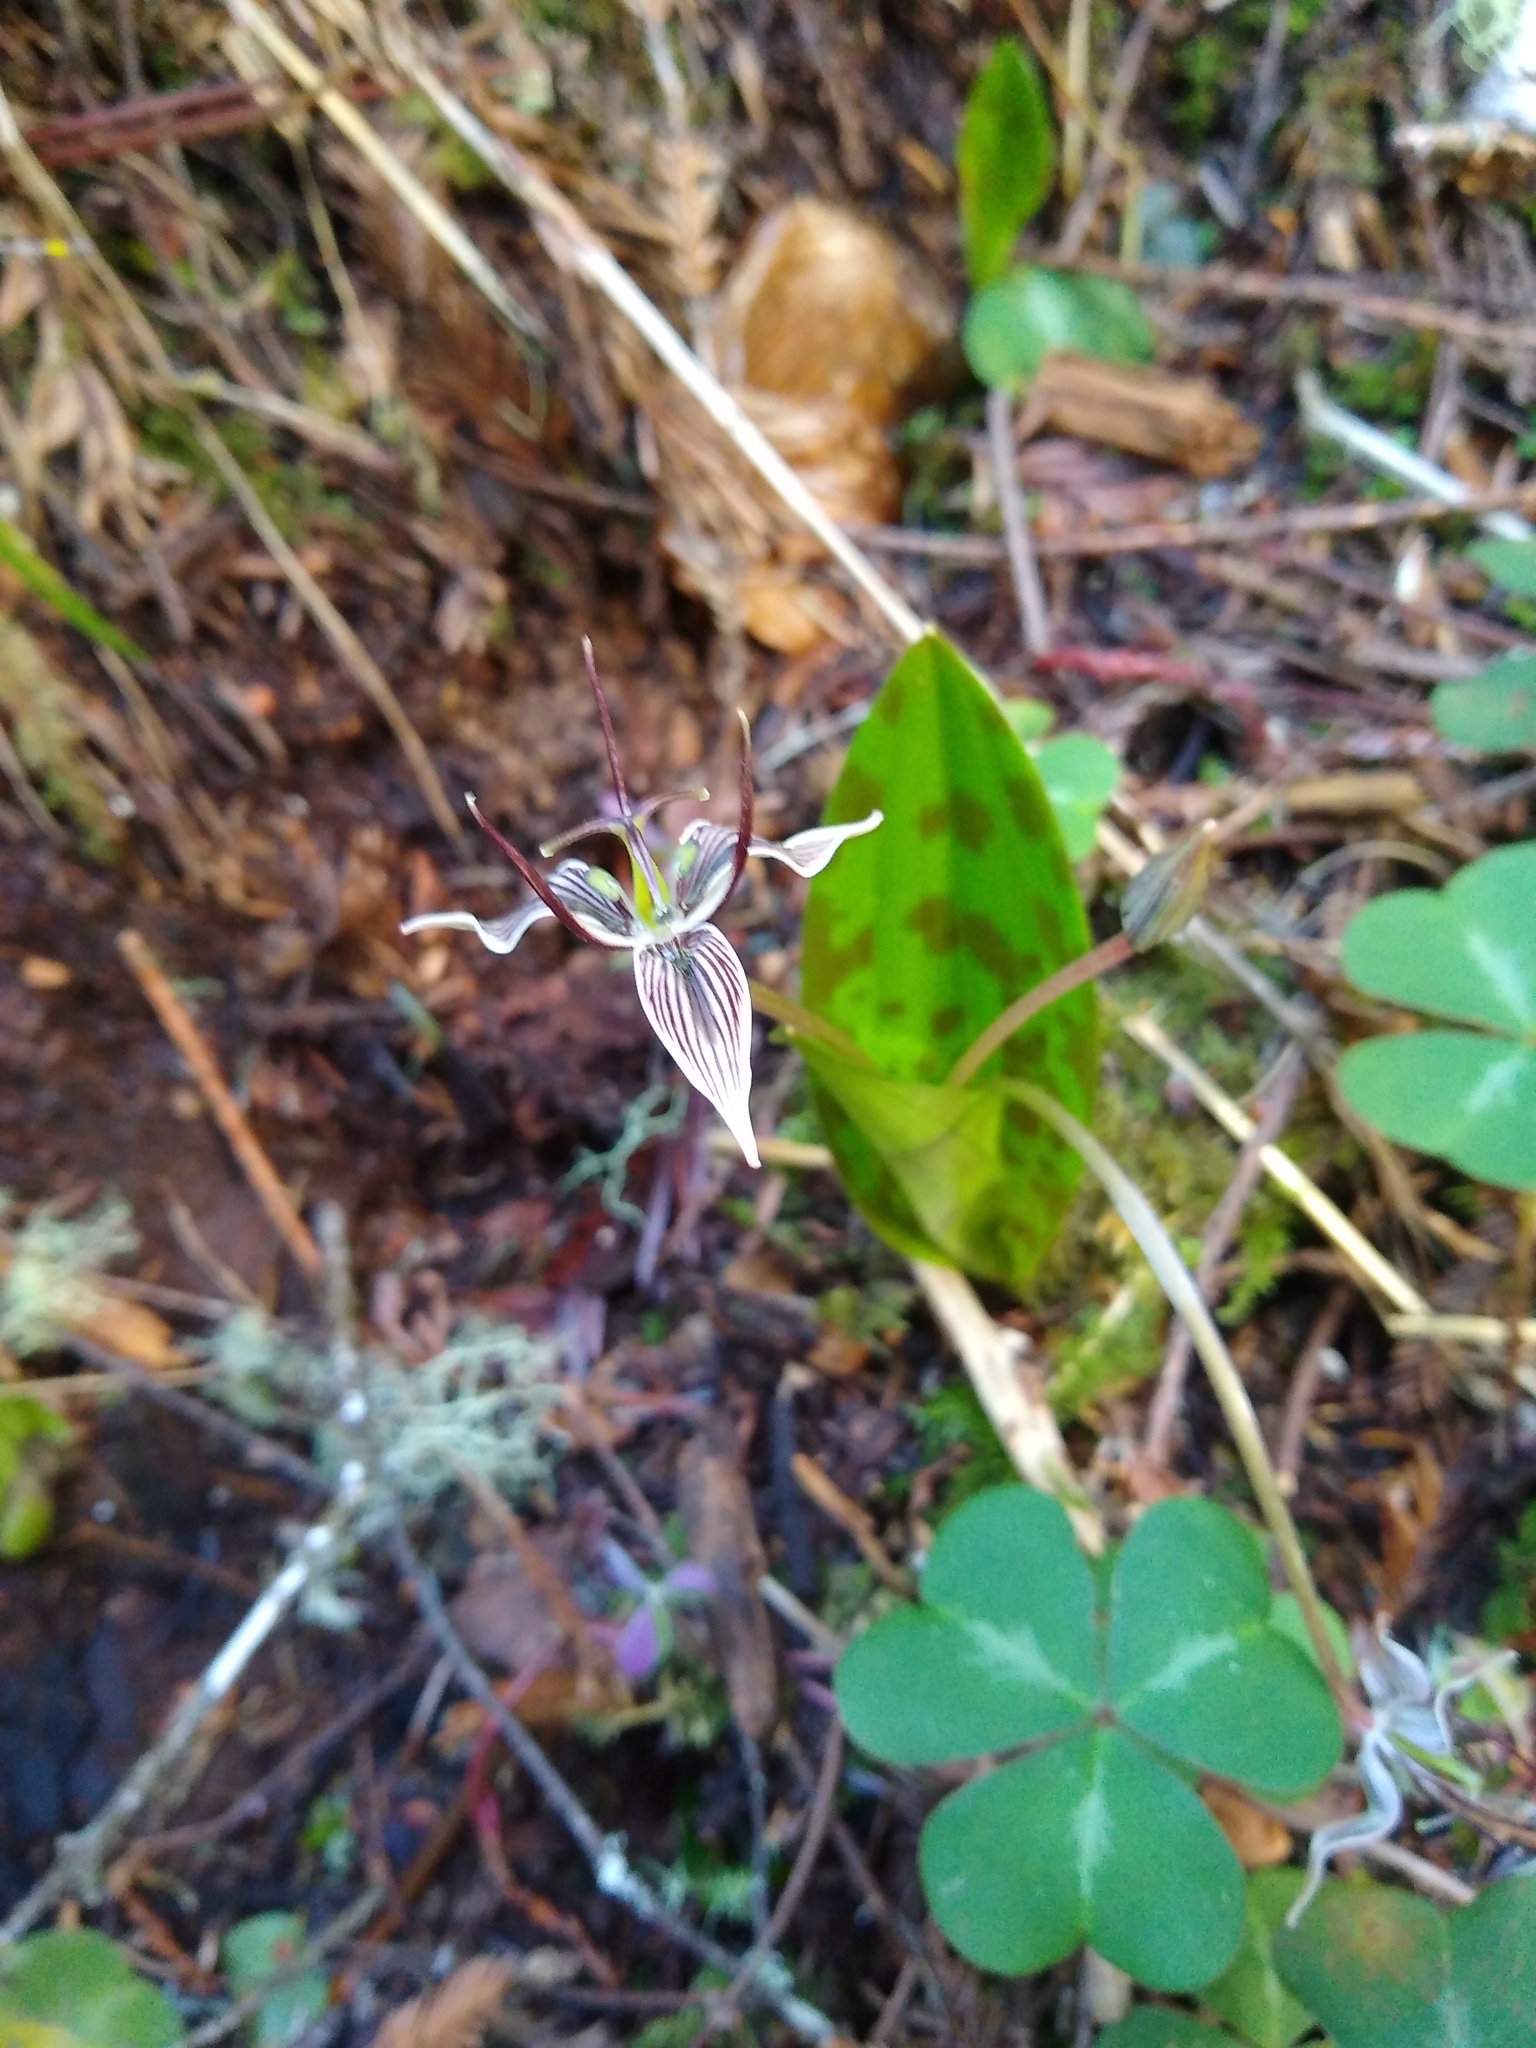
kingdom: Plantae
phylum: Tracheophyta
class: Liliopsida
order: Liliales
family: Liliaceae
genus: Scoliopus
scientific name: Scoliopus bigelovii
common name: Foetid adder's-tongue
